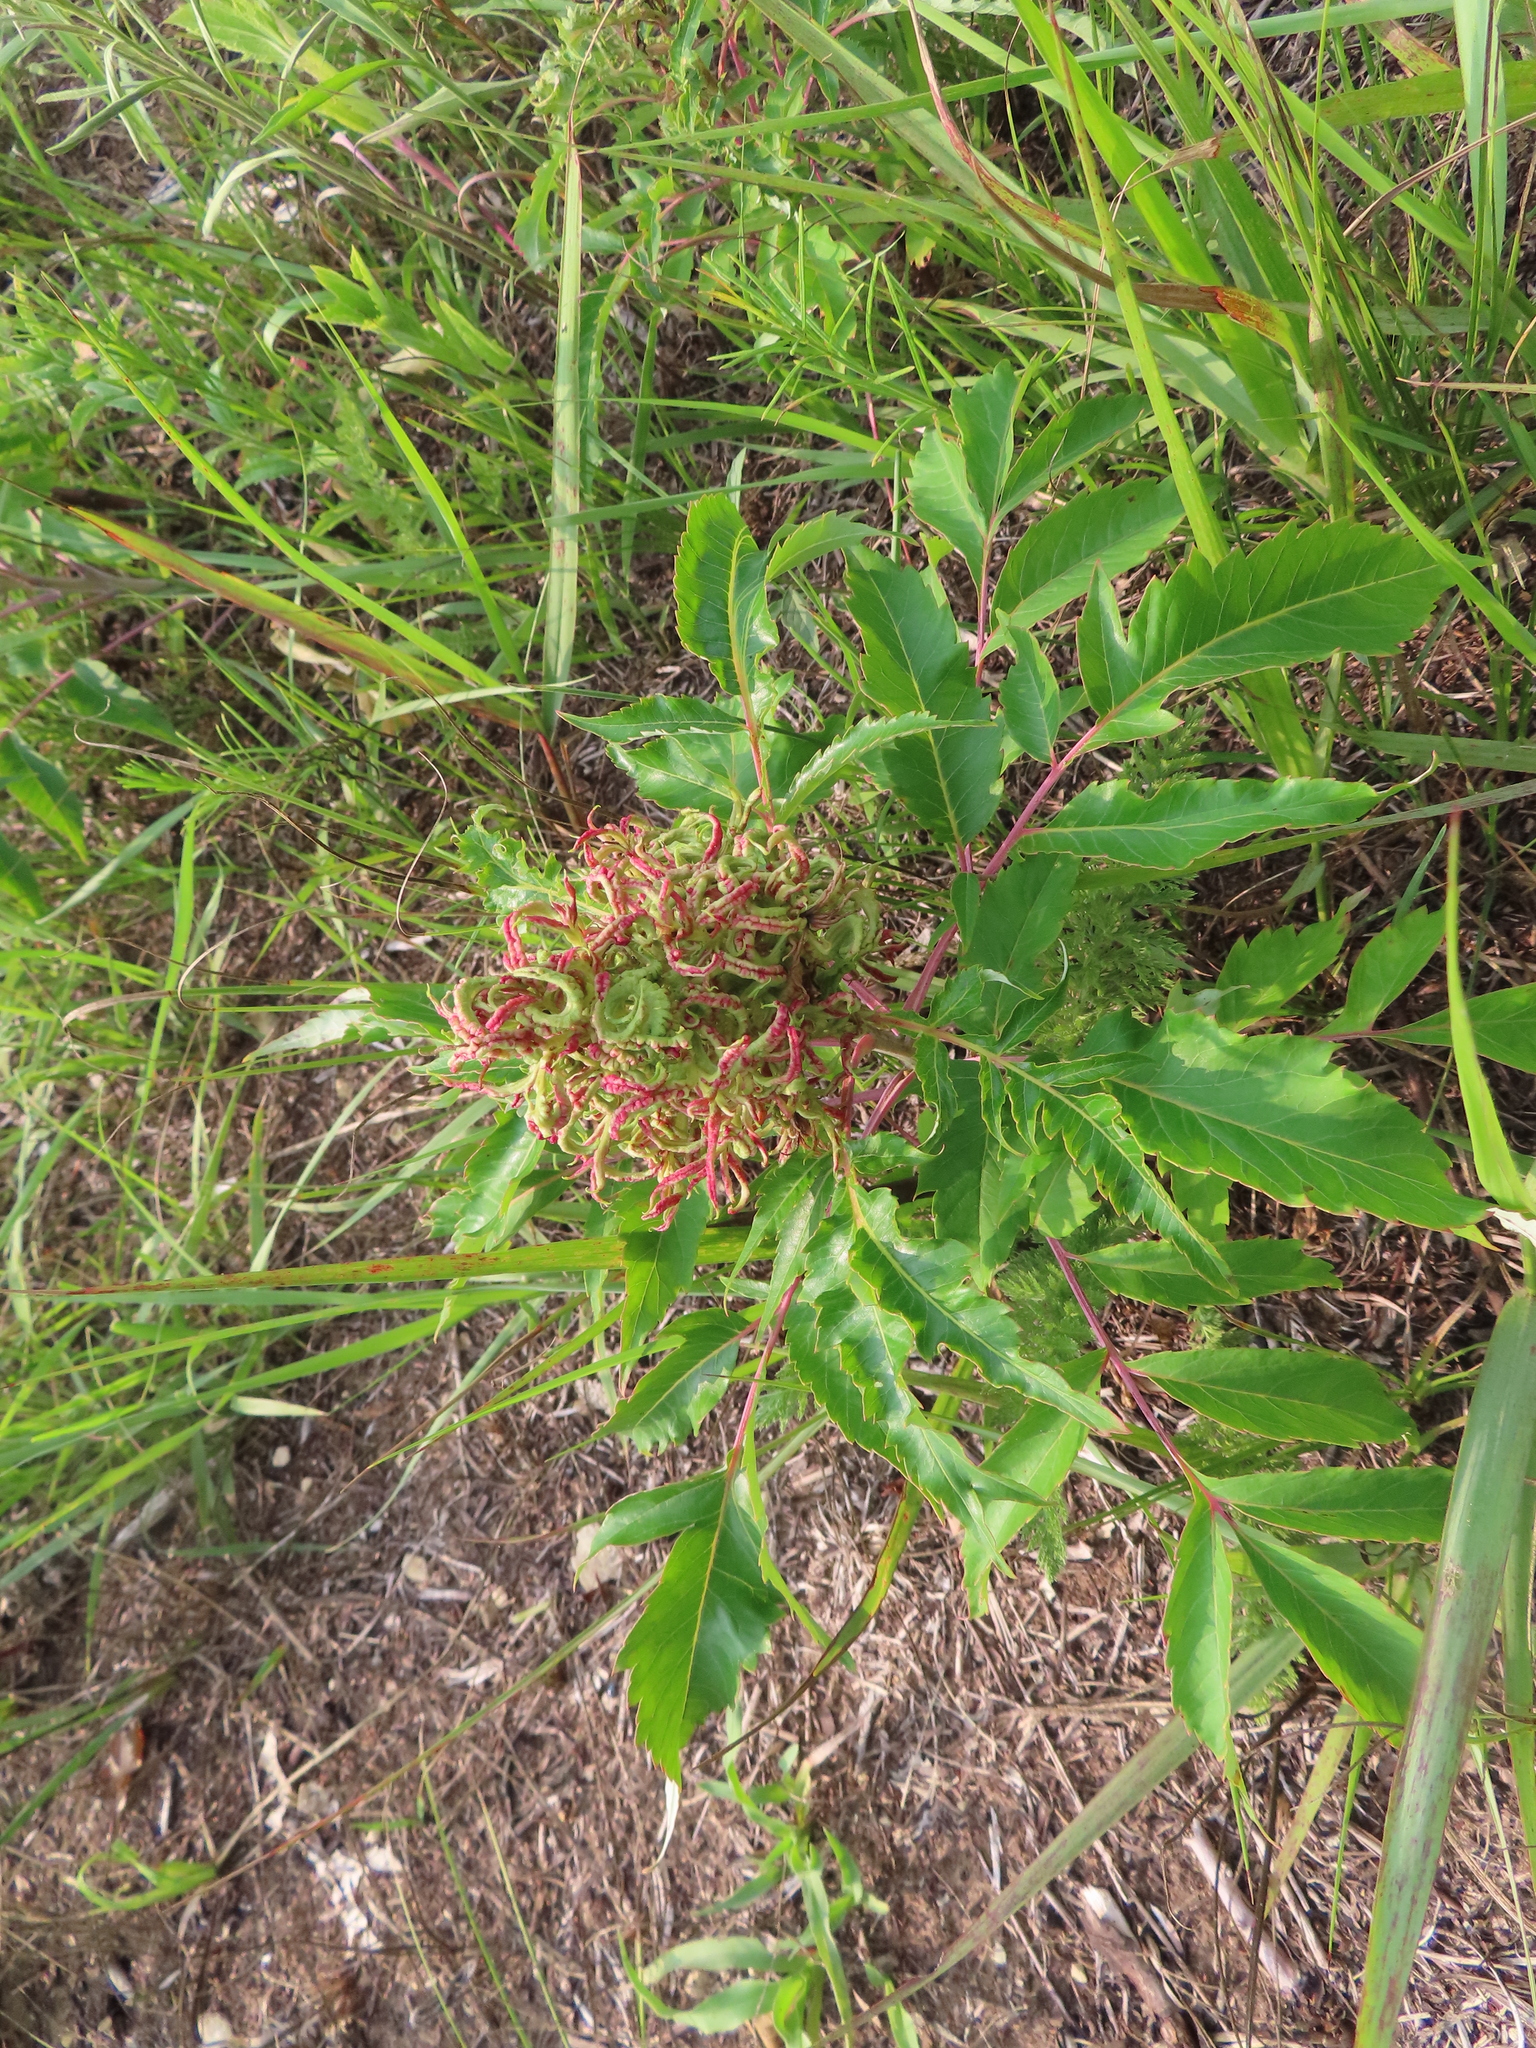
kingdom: Animalia
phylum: Arthropoda
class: Arachnida
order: Trombidiformes
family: Eriophyidae
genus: Eriophyes
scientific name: Eriophyes
